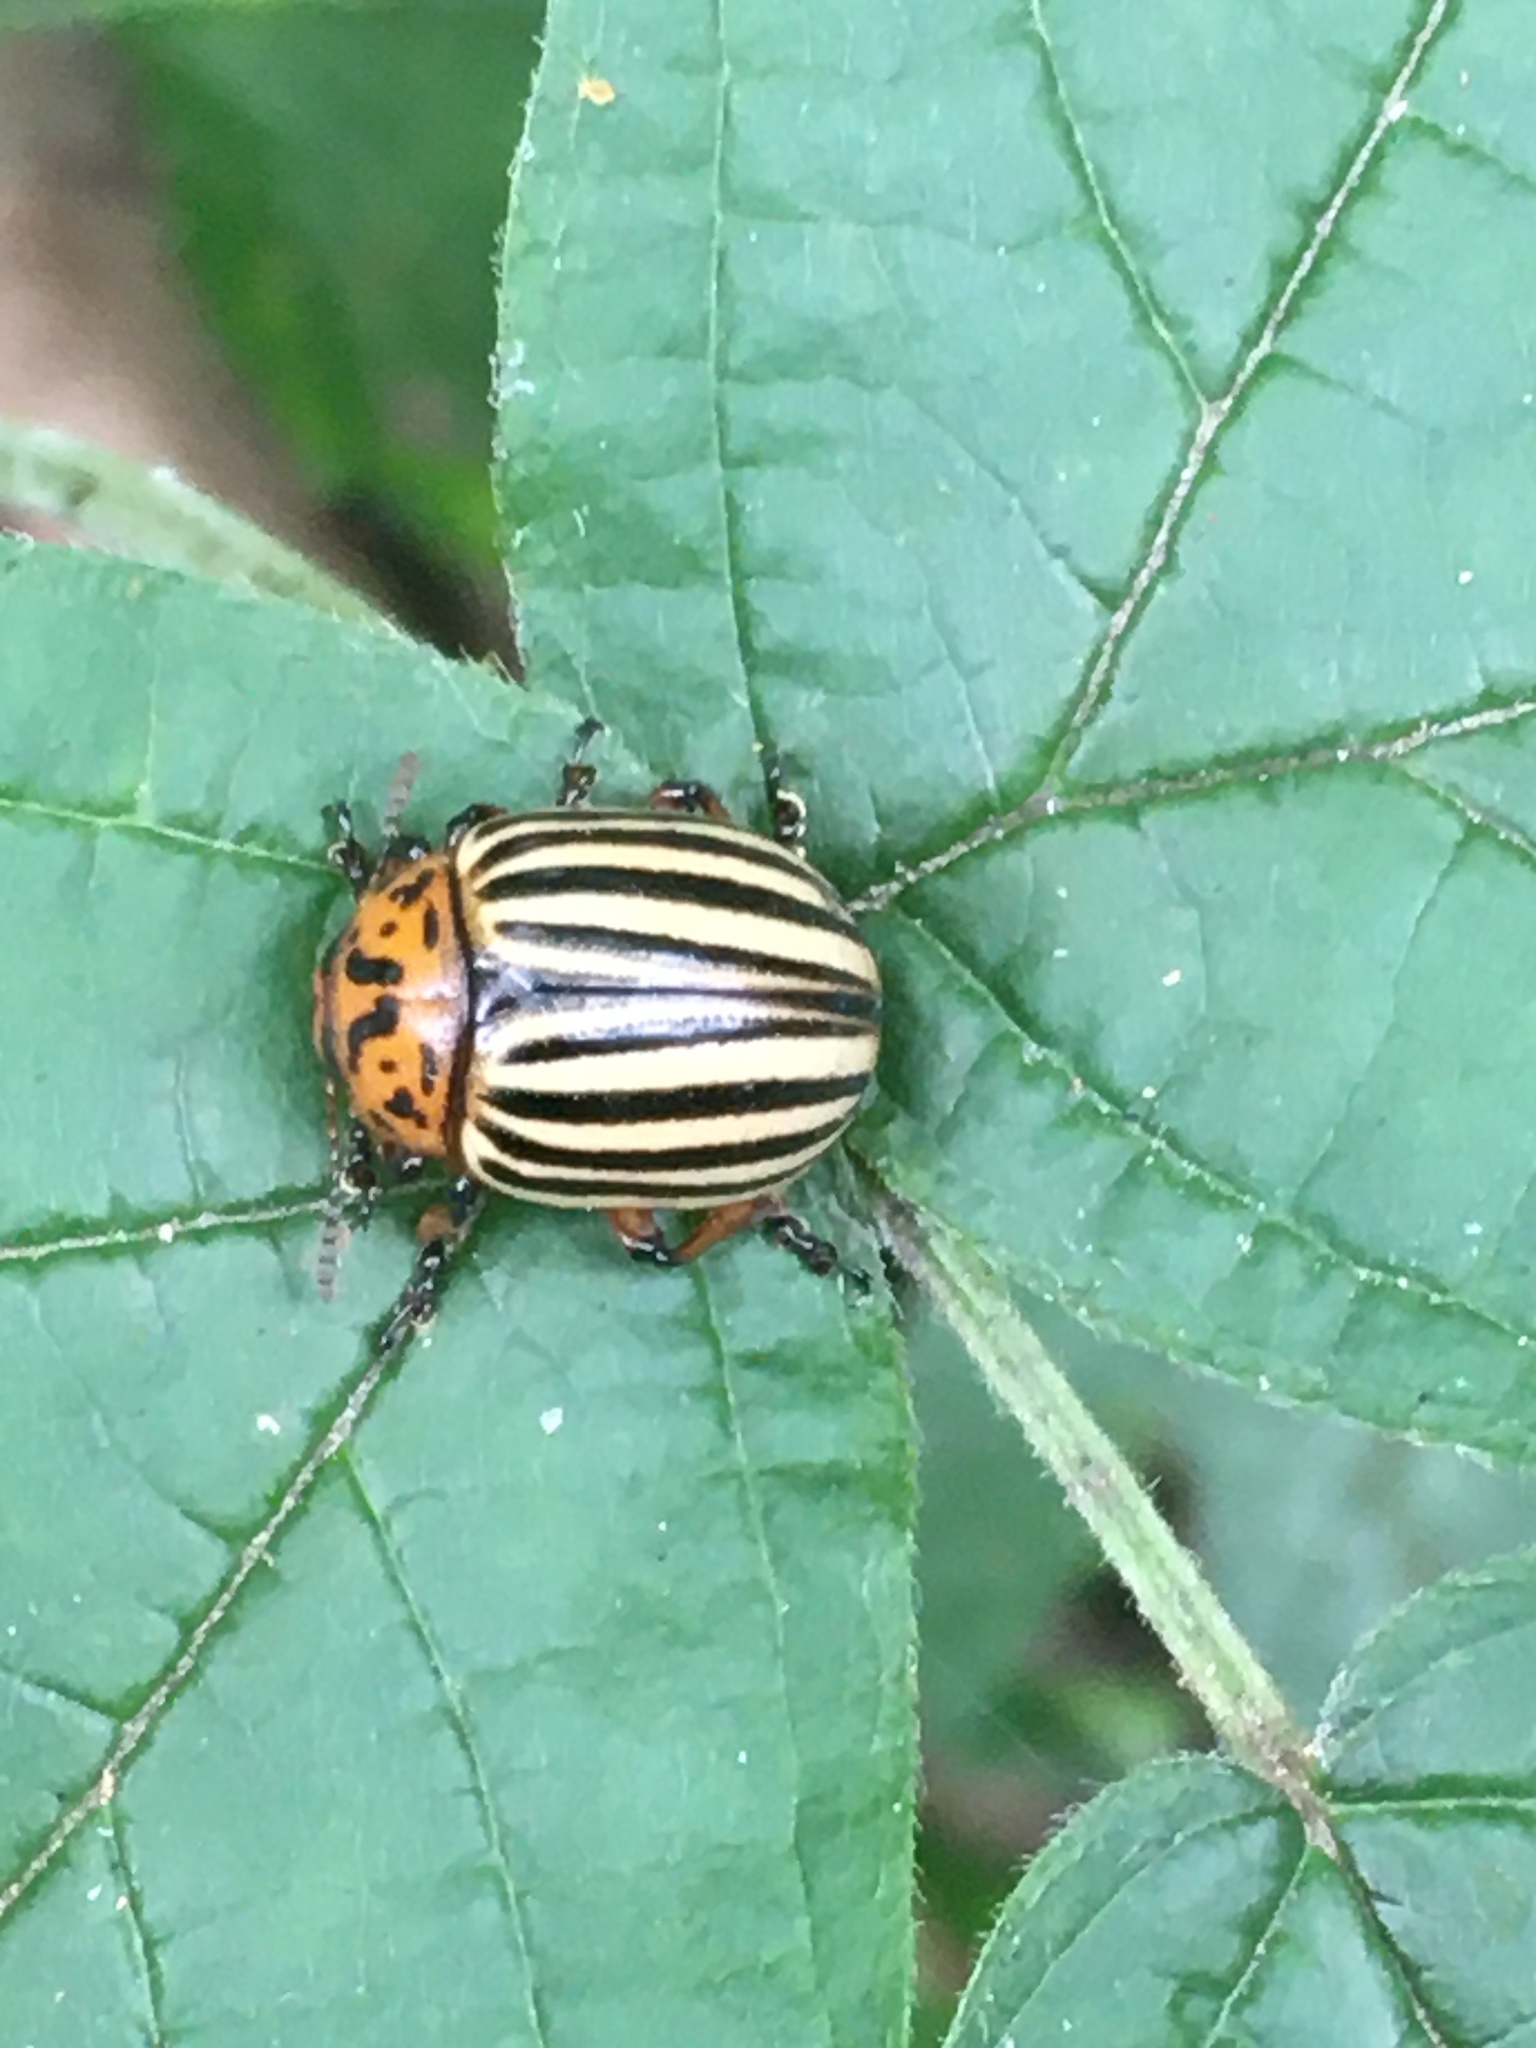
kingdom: Animalia
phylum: Arthropoda
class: Insecta
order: Coleoptera
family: Chrysomelidae
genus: Leptinotarsa
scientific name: Leptinotarsa decemlineata
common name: Colorado potato beetle
